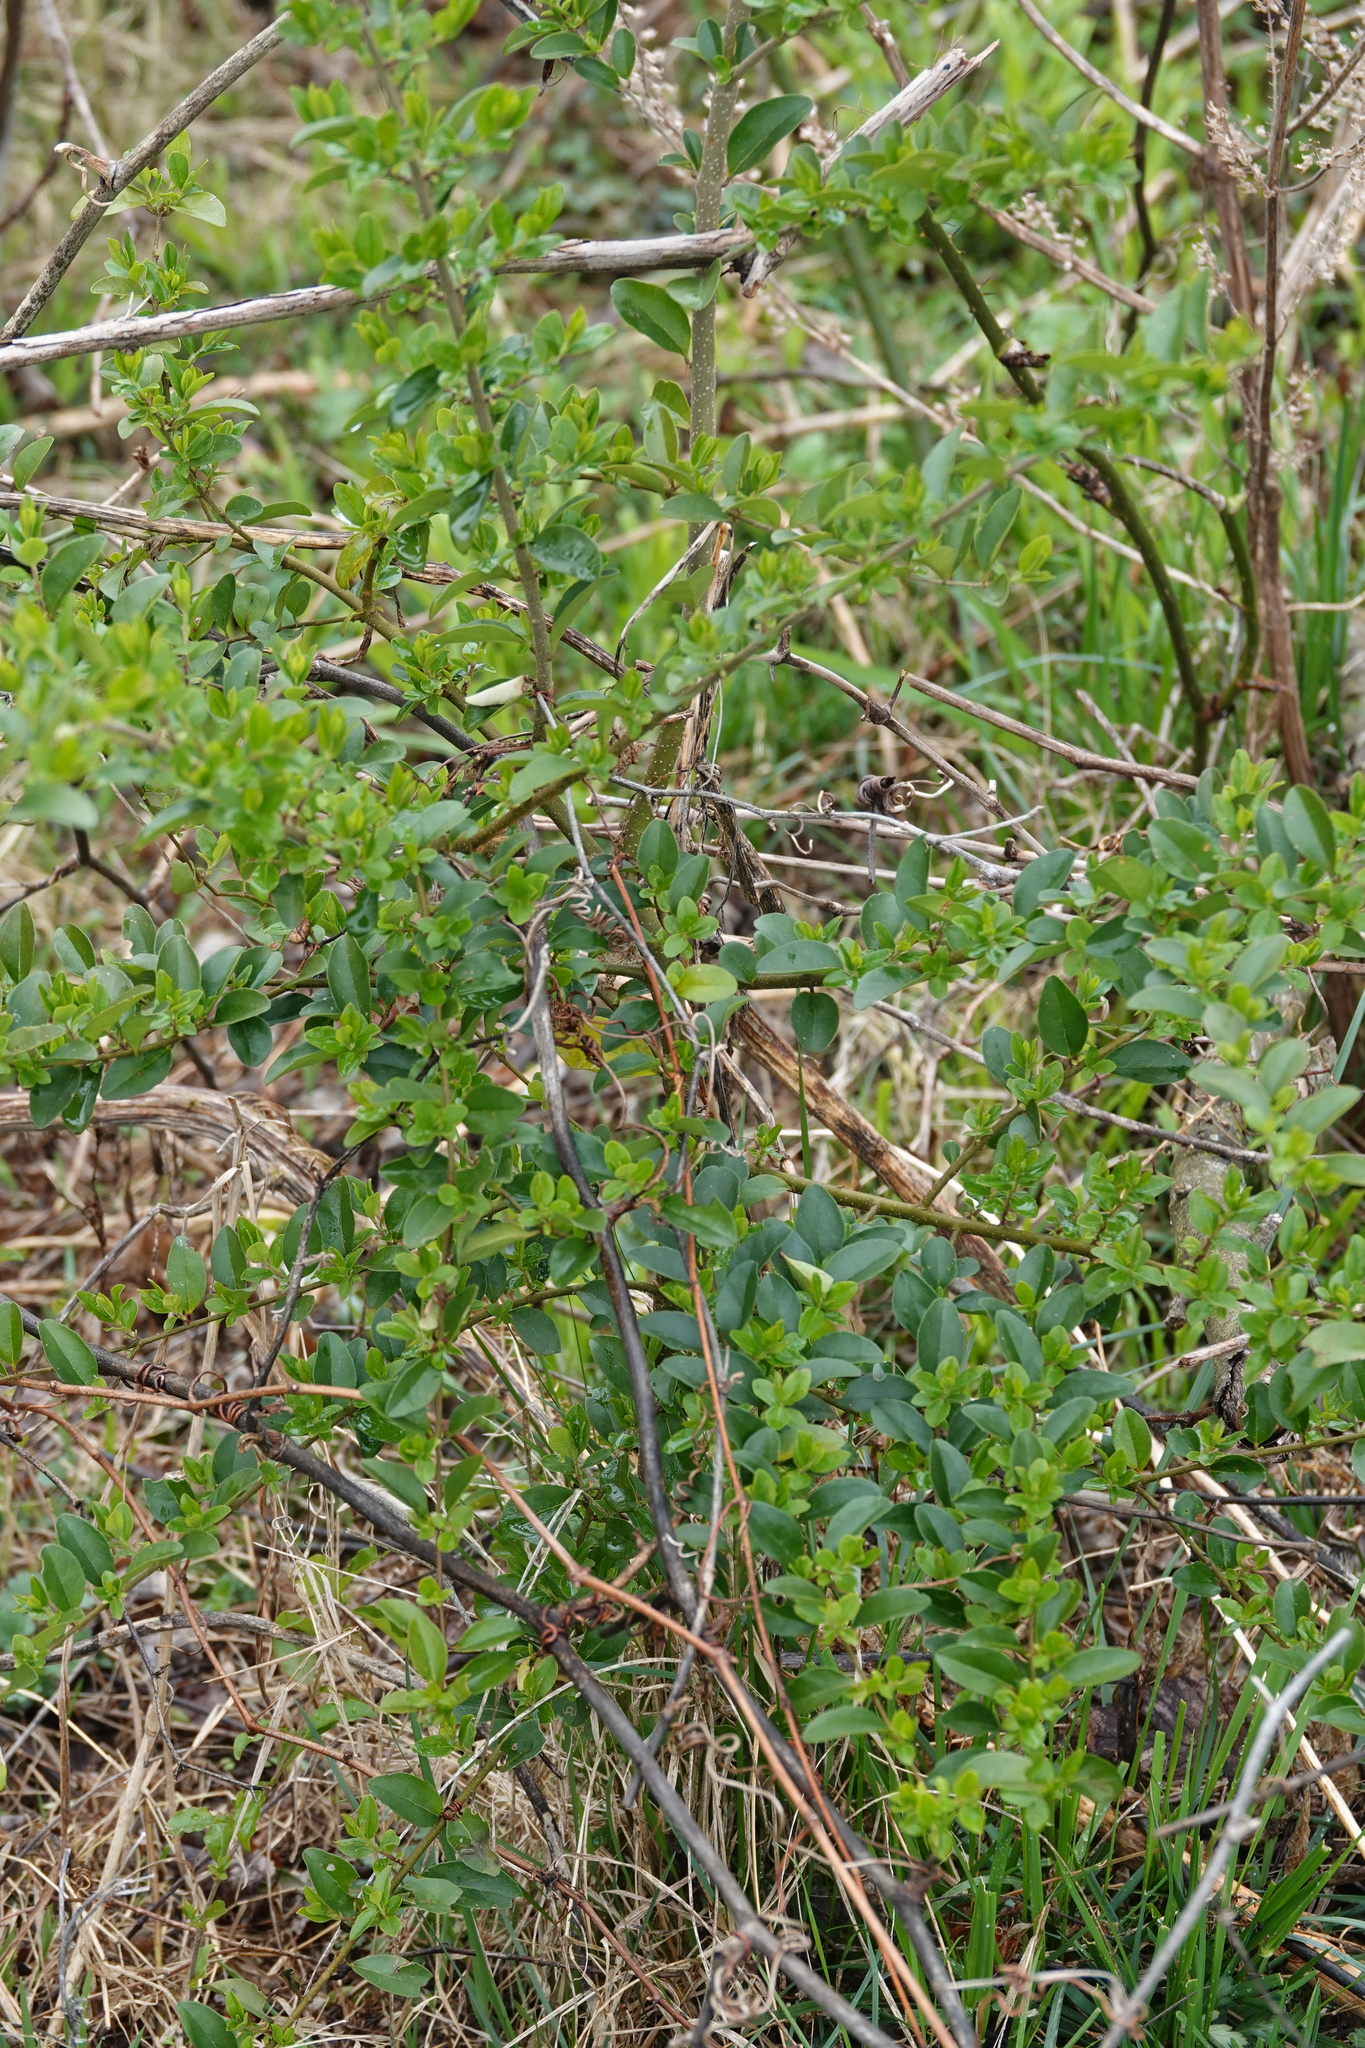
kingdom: Plantae
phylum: Tracheophyta
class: Magnoliopsida
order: Lamiales
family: Oleaceae
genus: Ligustrum
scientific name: Ligustrum sinense
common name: Chinese privet
